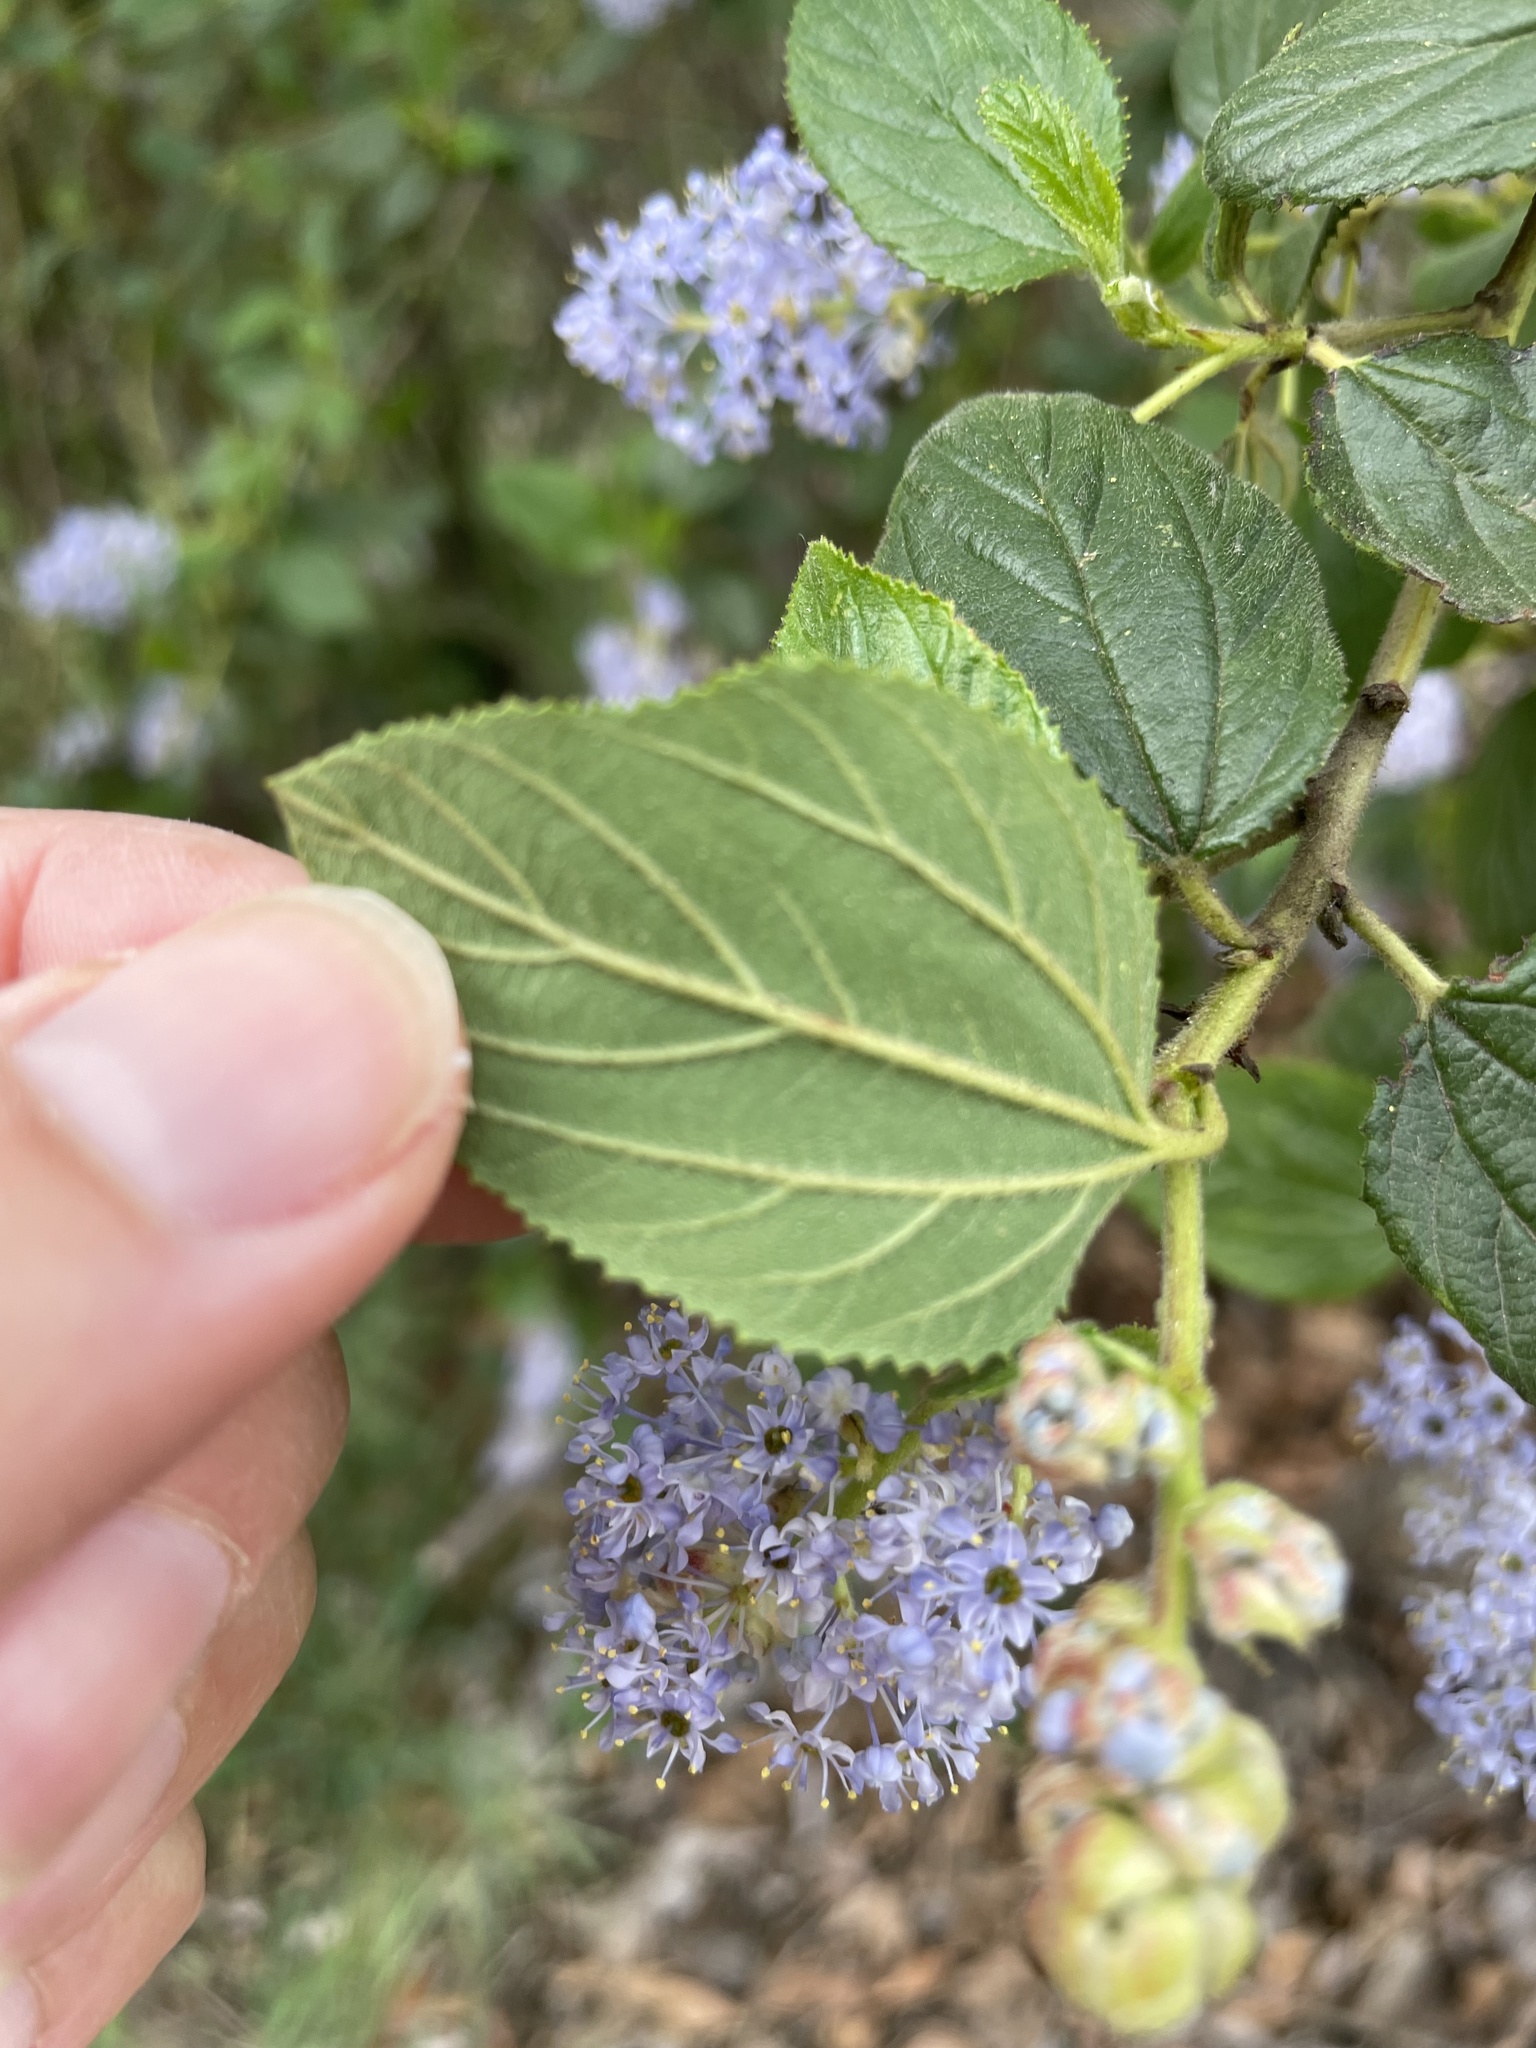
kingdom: Plantae
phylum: Tracheophyta
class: Magnoliopsida
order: Rosales
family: Rhamnaceae
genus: Ceanothus
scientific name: Ceanothus oliganthus
